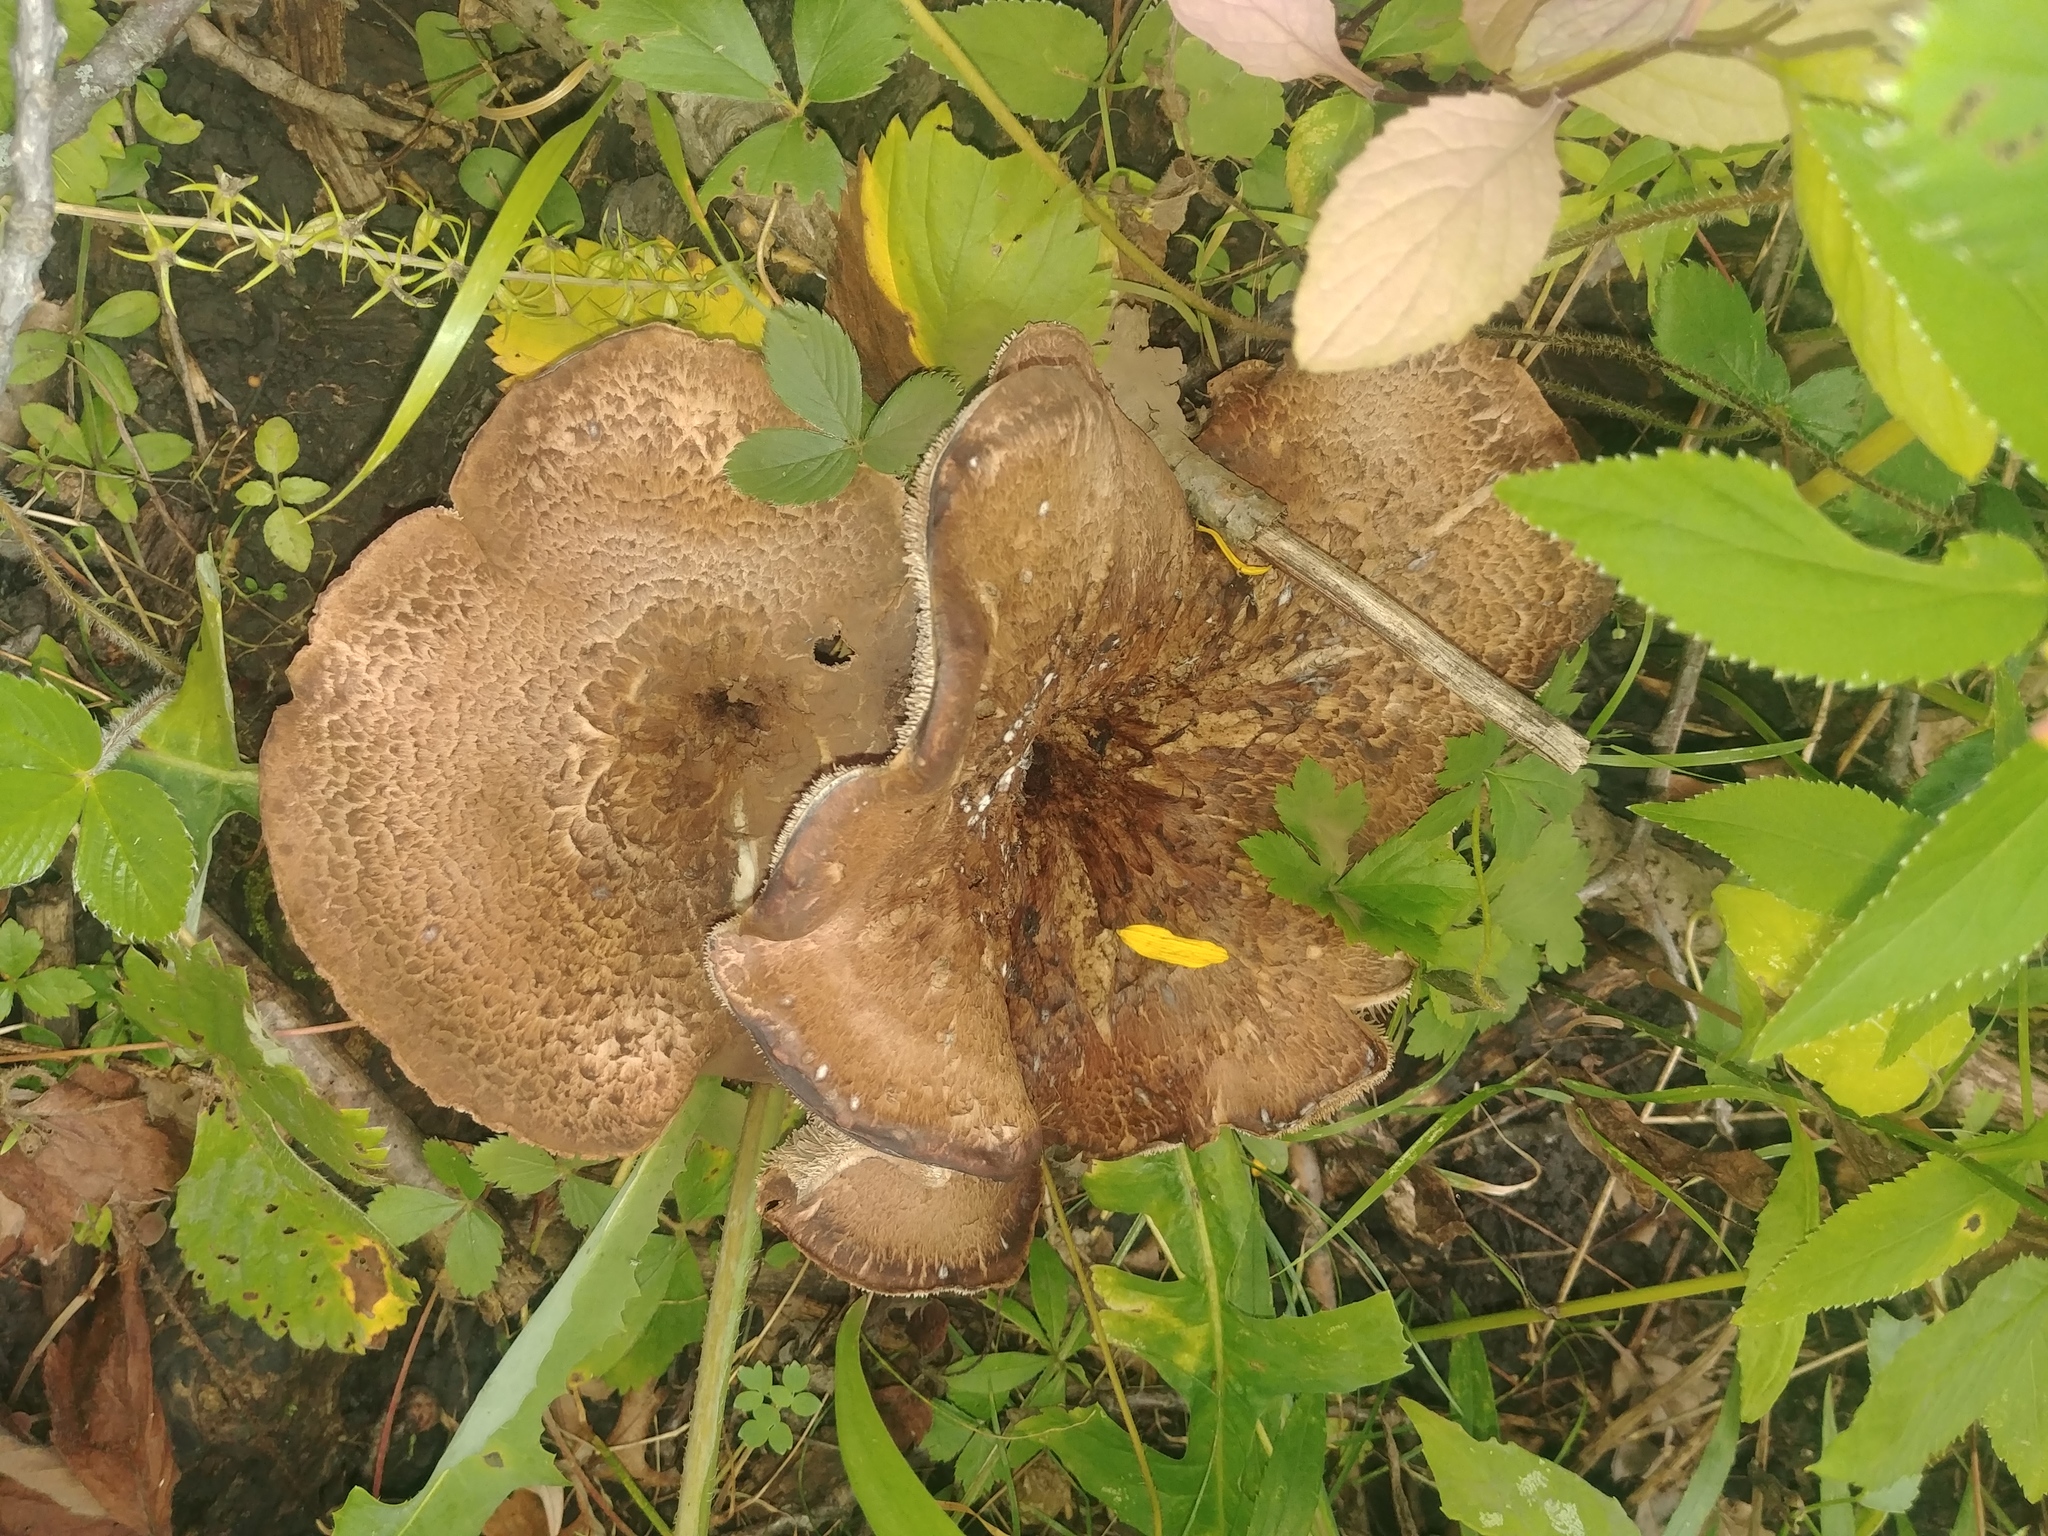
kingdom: Fungi
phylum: Basidiomycota
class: Agaricomycetes
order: Thelephorales
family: Bankeraceae
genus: Sarcodon
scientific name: Sarcodon imbricatus
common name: Shingled hedgehog
